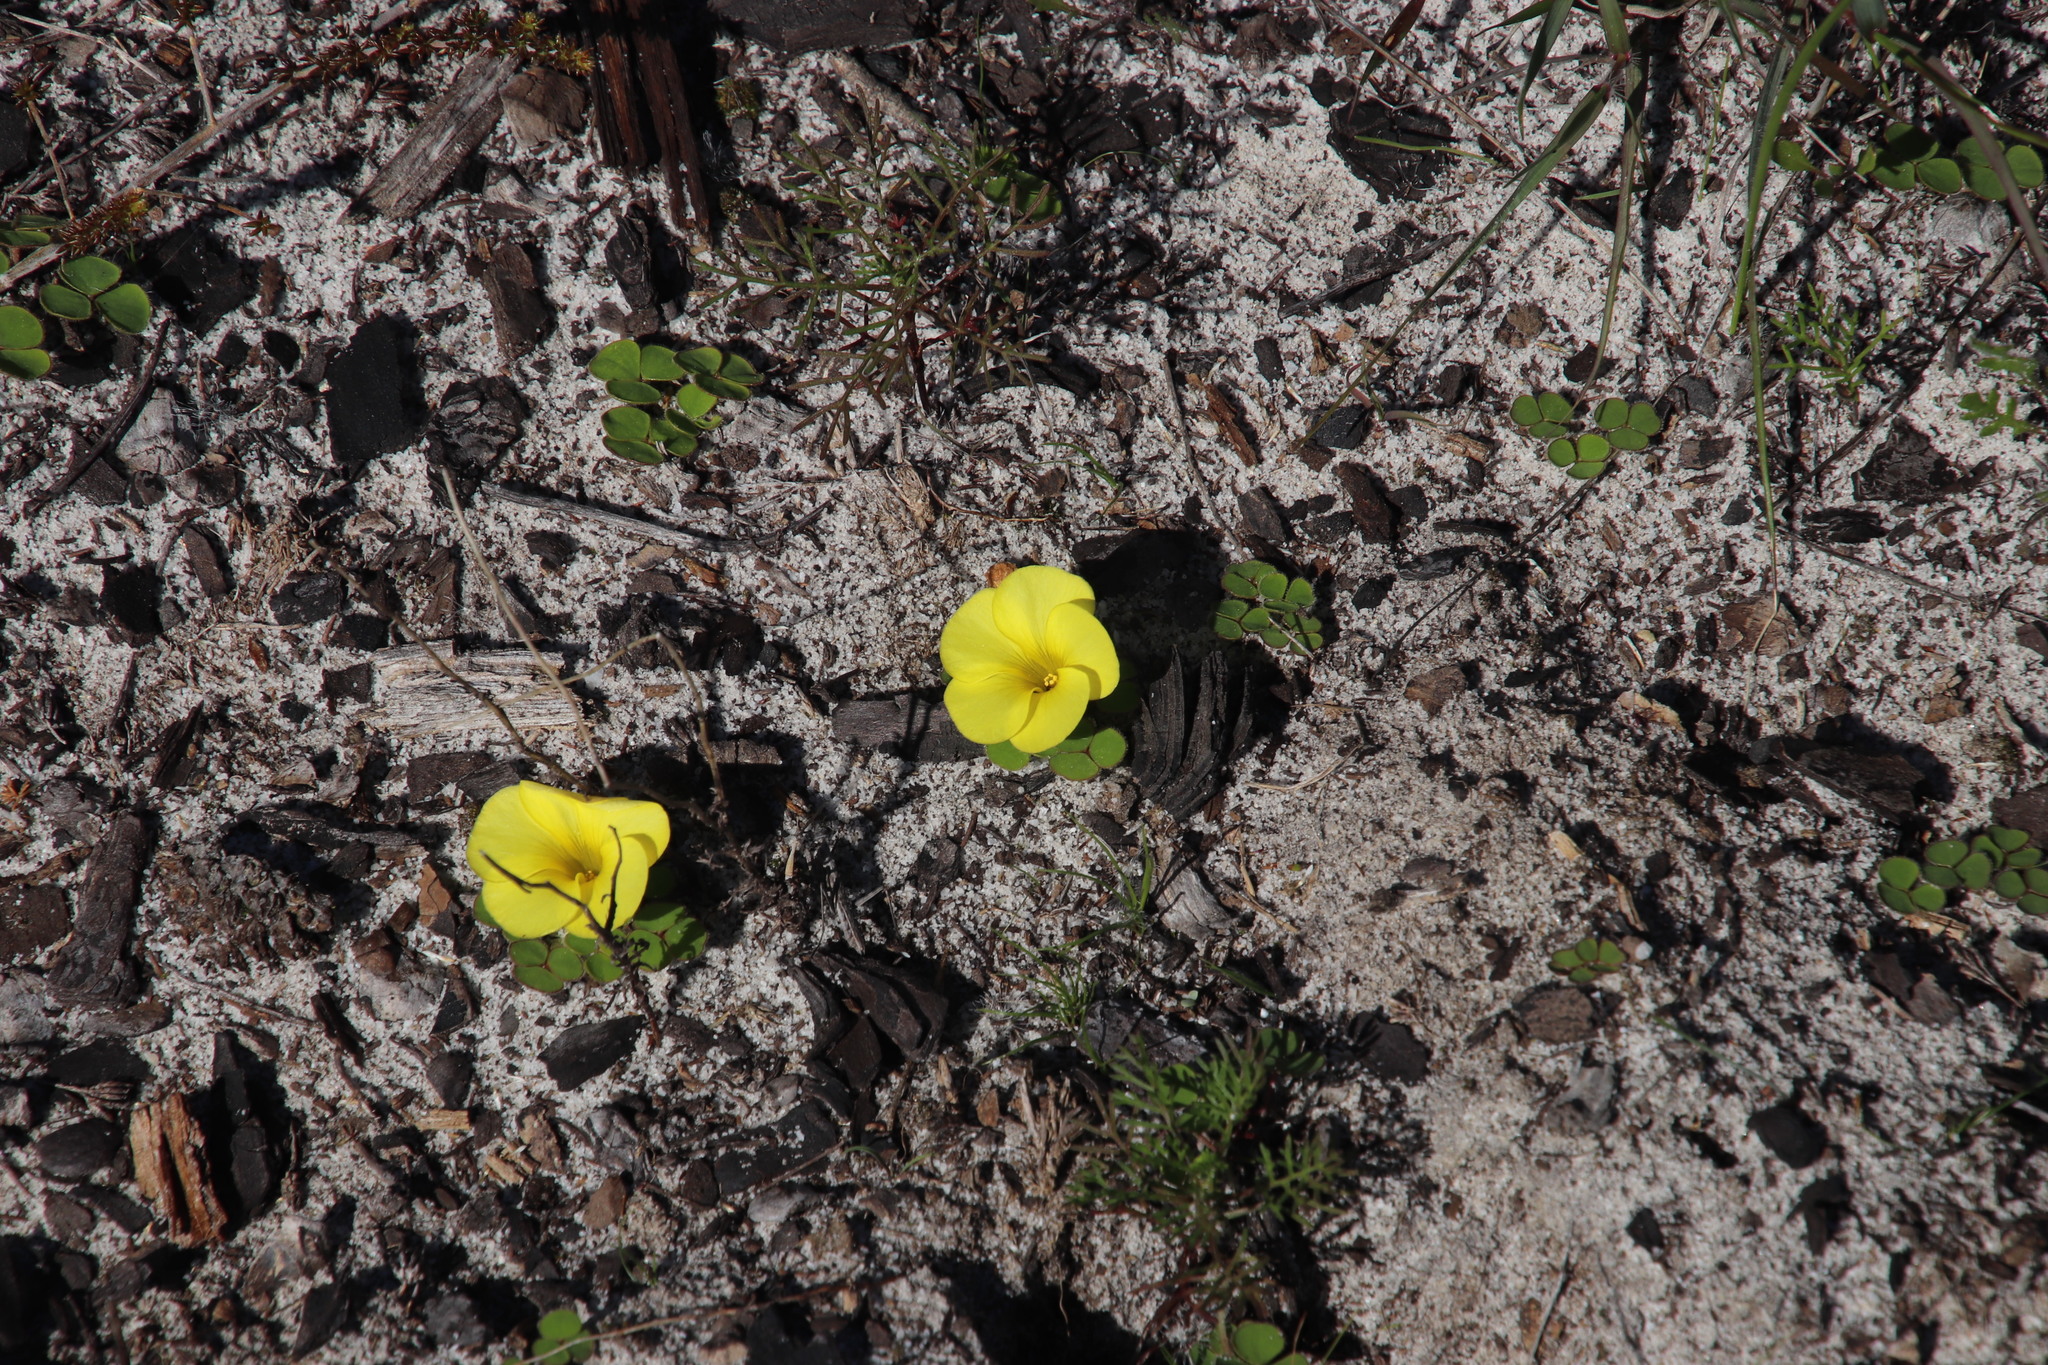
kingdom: Plantae
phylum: Tracheophyta
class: Magnoliopsida
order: Oxalidales
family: Oxalidaceae
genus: Oxalis
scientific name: Oxalis luteola
